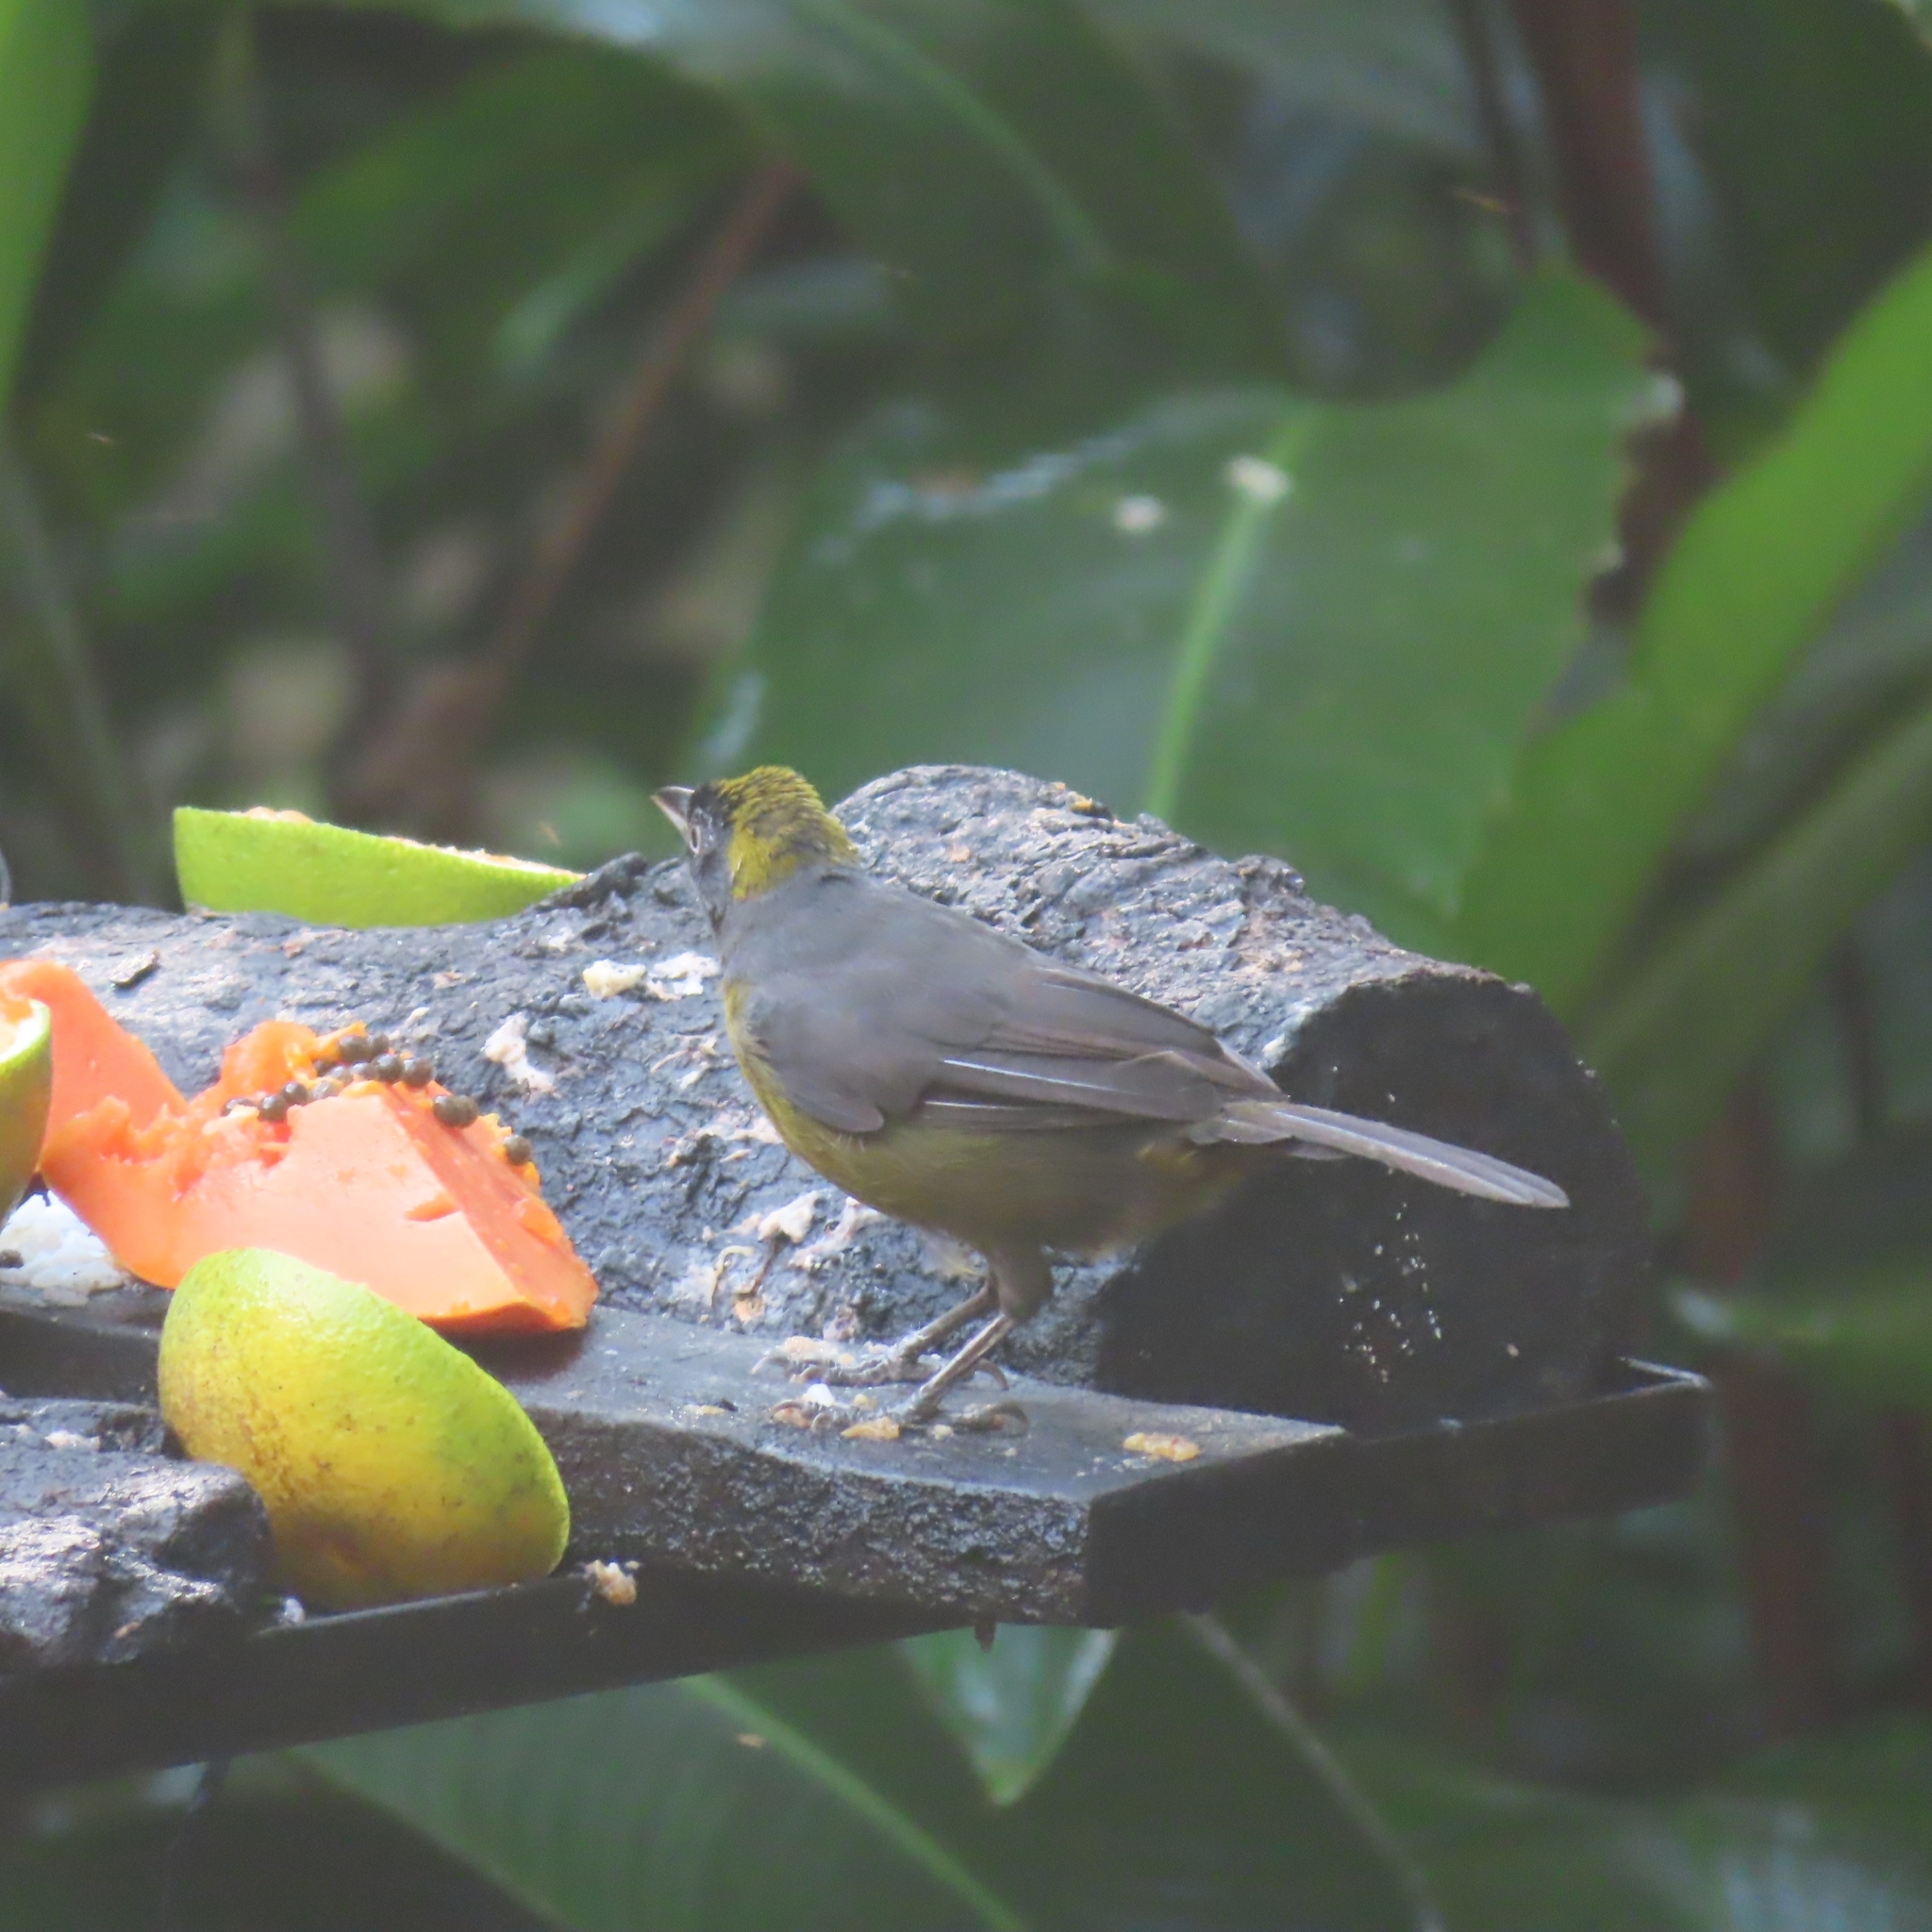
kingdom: Animalia
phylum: Chordata
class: Aves
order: Passeriformes
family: Mitrospingidae
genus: Mitrospingus
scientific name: Mitrospingus cassinii
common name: Dusky-faced tanager
